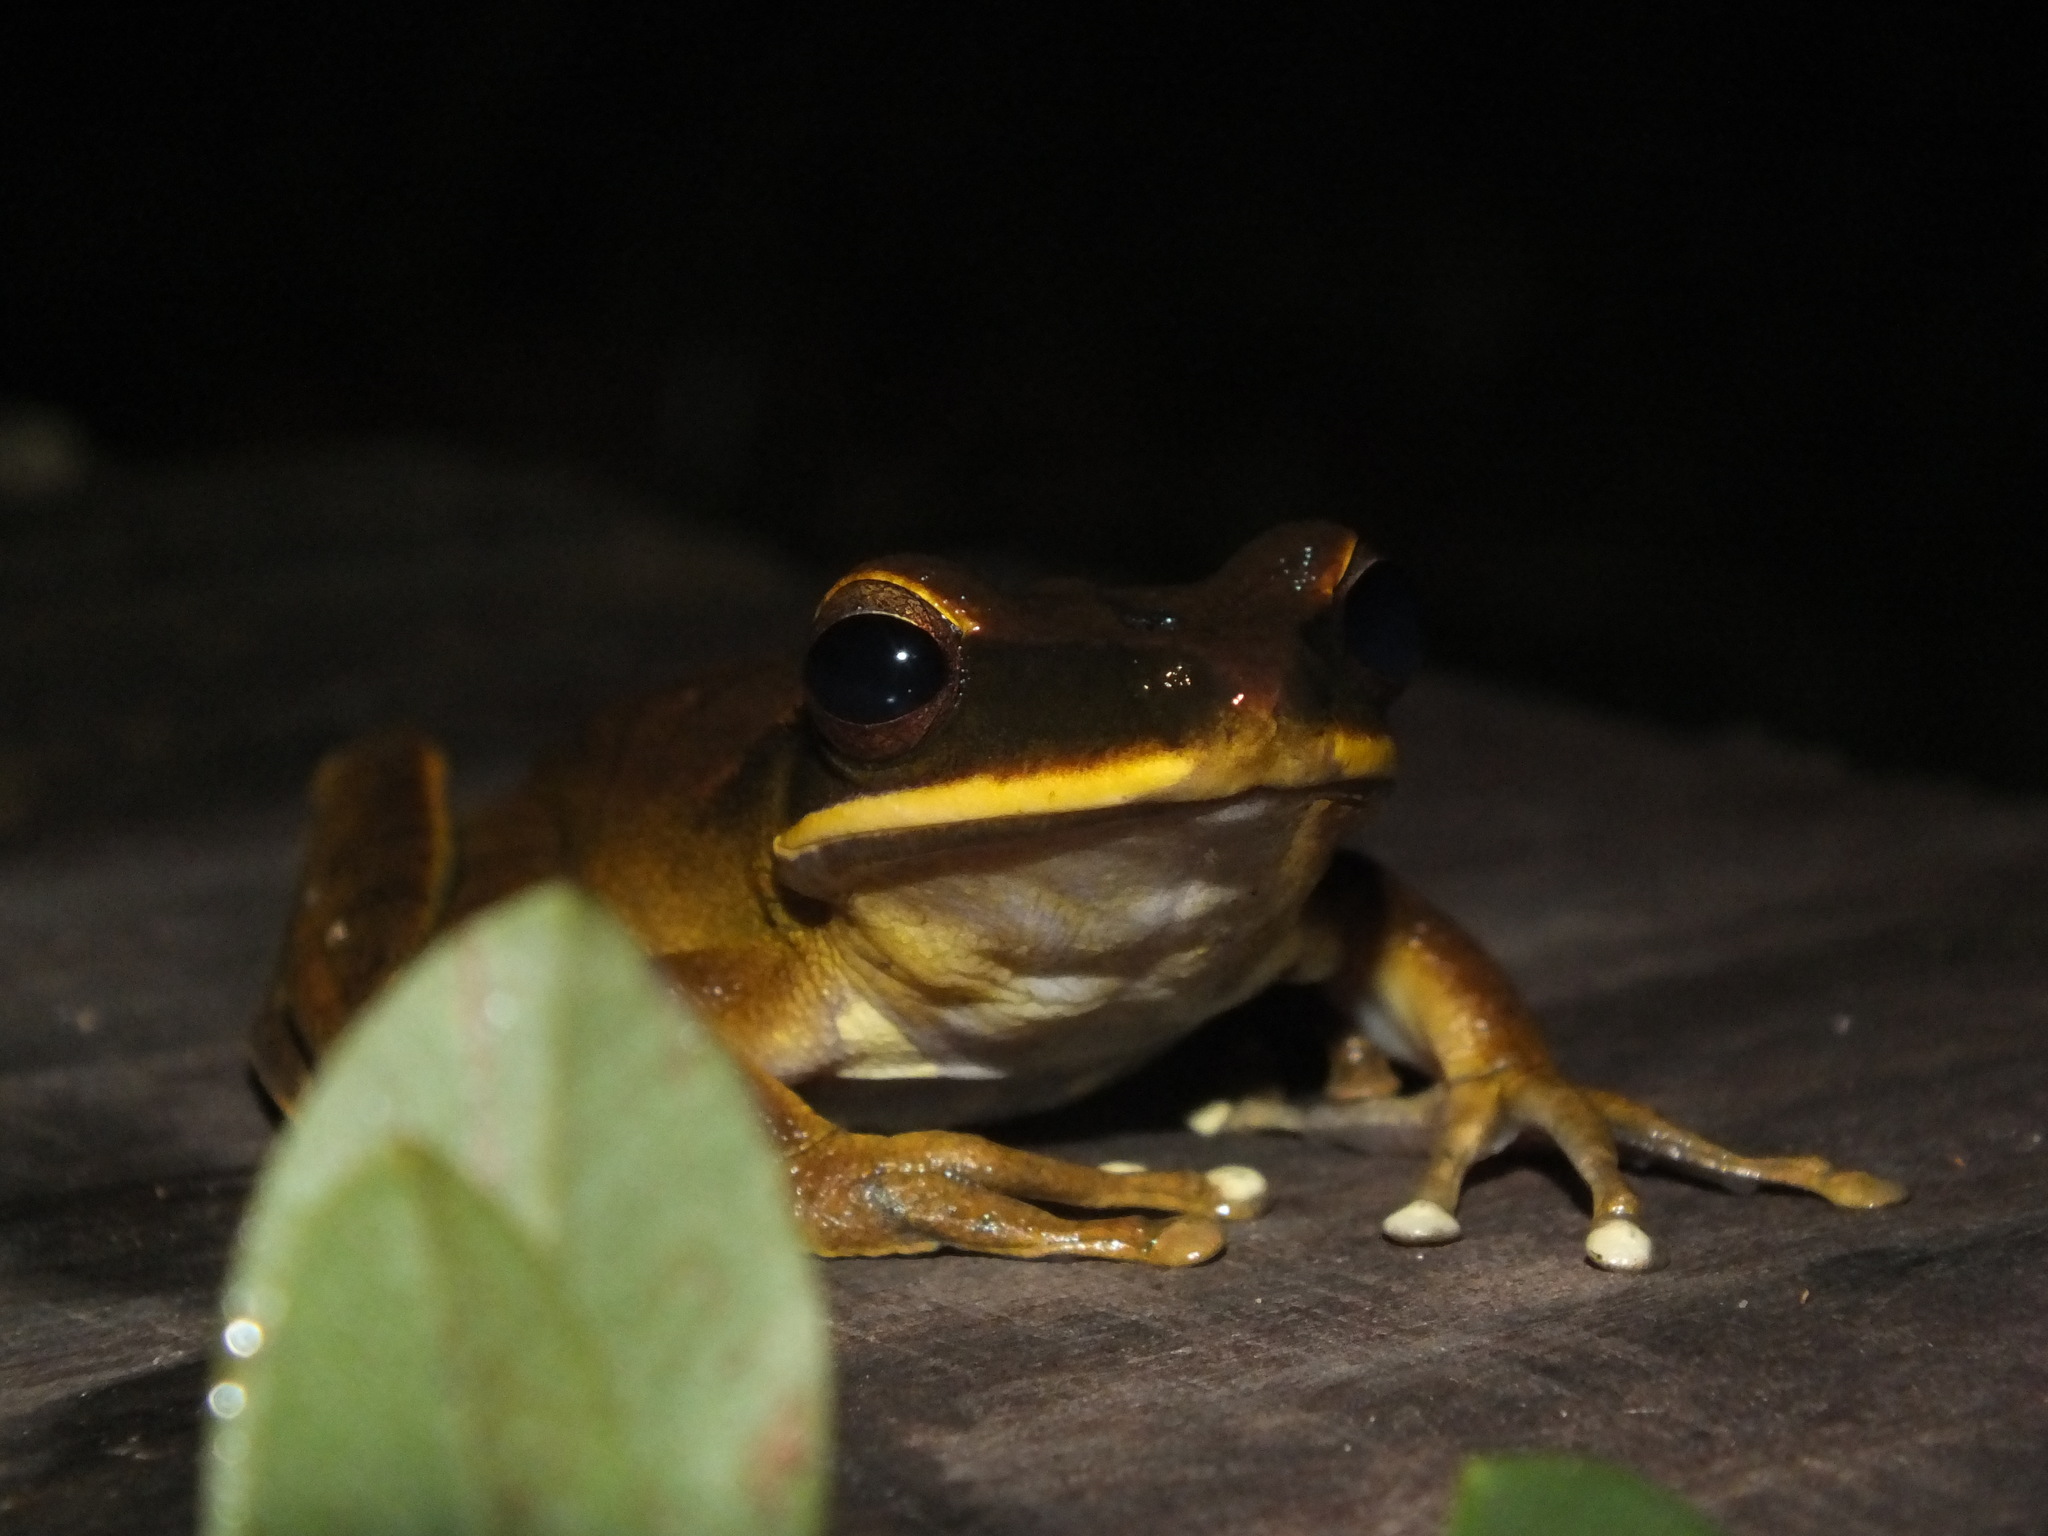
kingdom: Animalia
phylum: Chordata
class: Amphibia
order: Anura
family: Hylidae
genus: Boana
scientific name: Boana lanciformis
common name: Rana lanceolada commún
